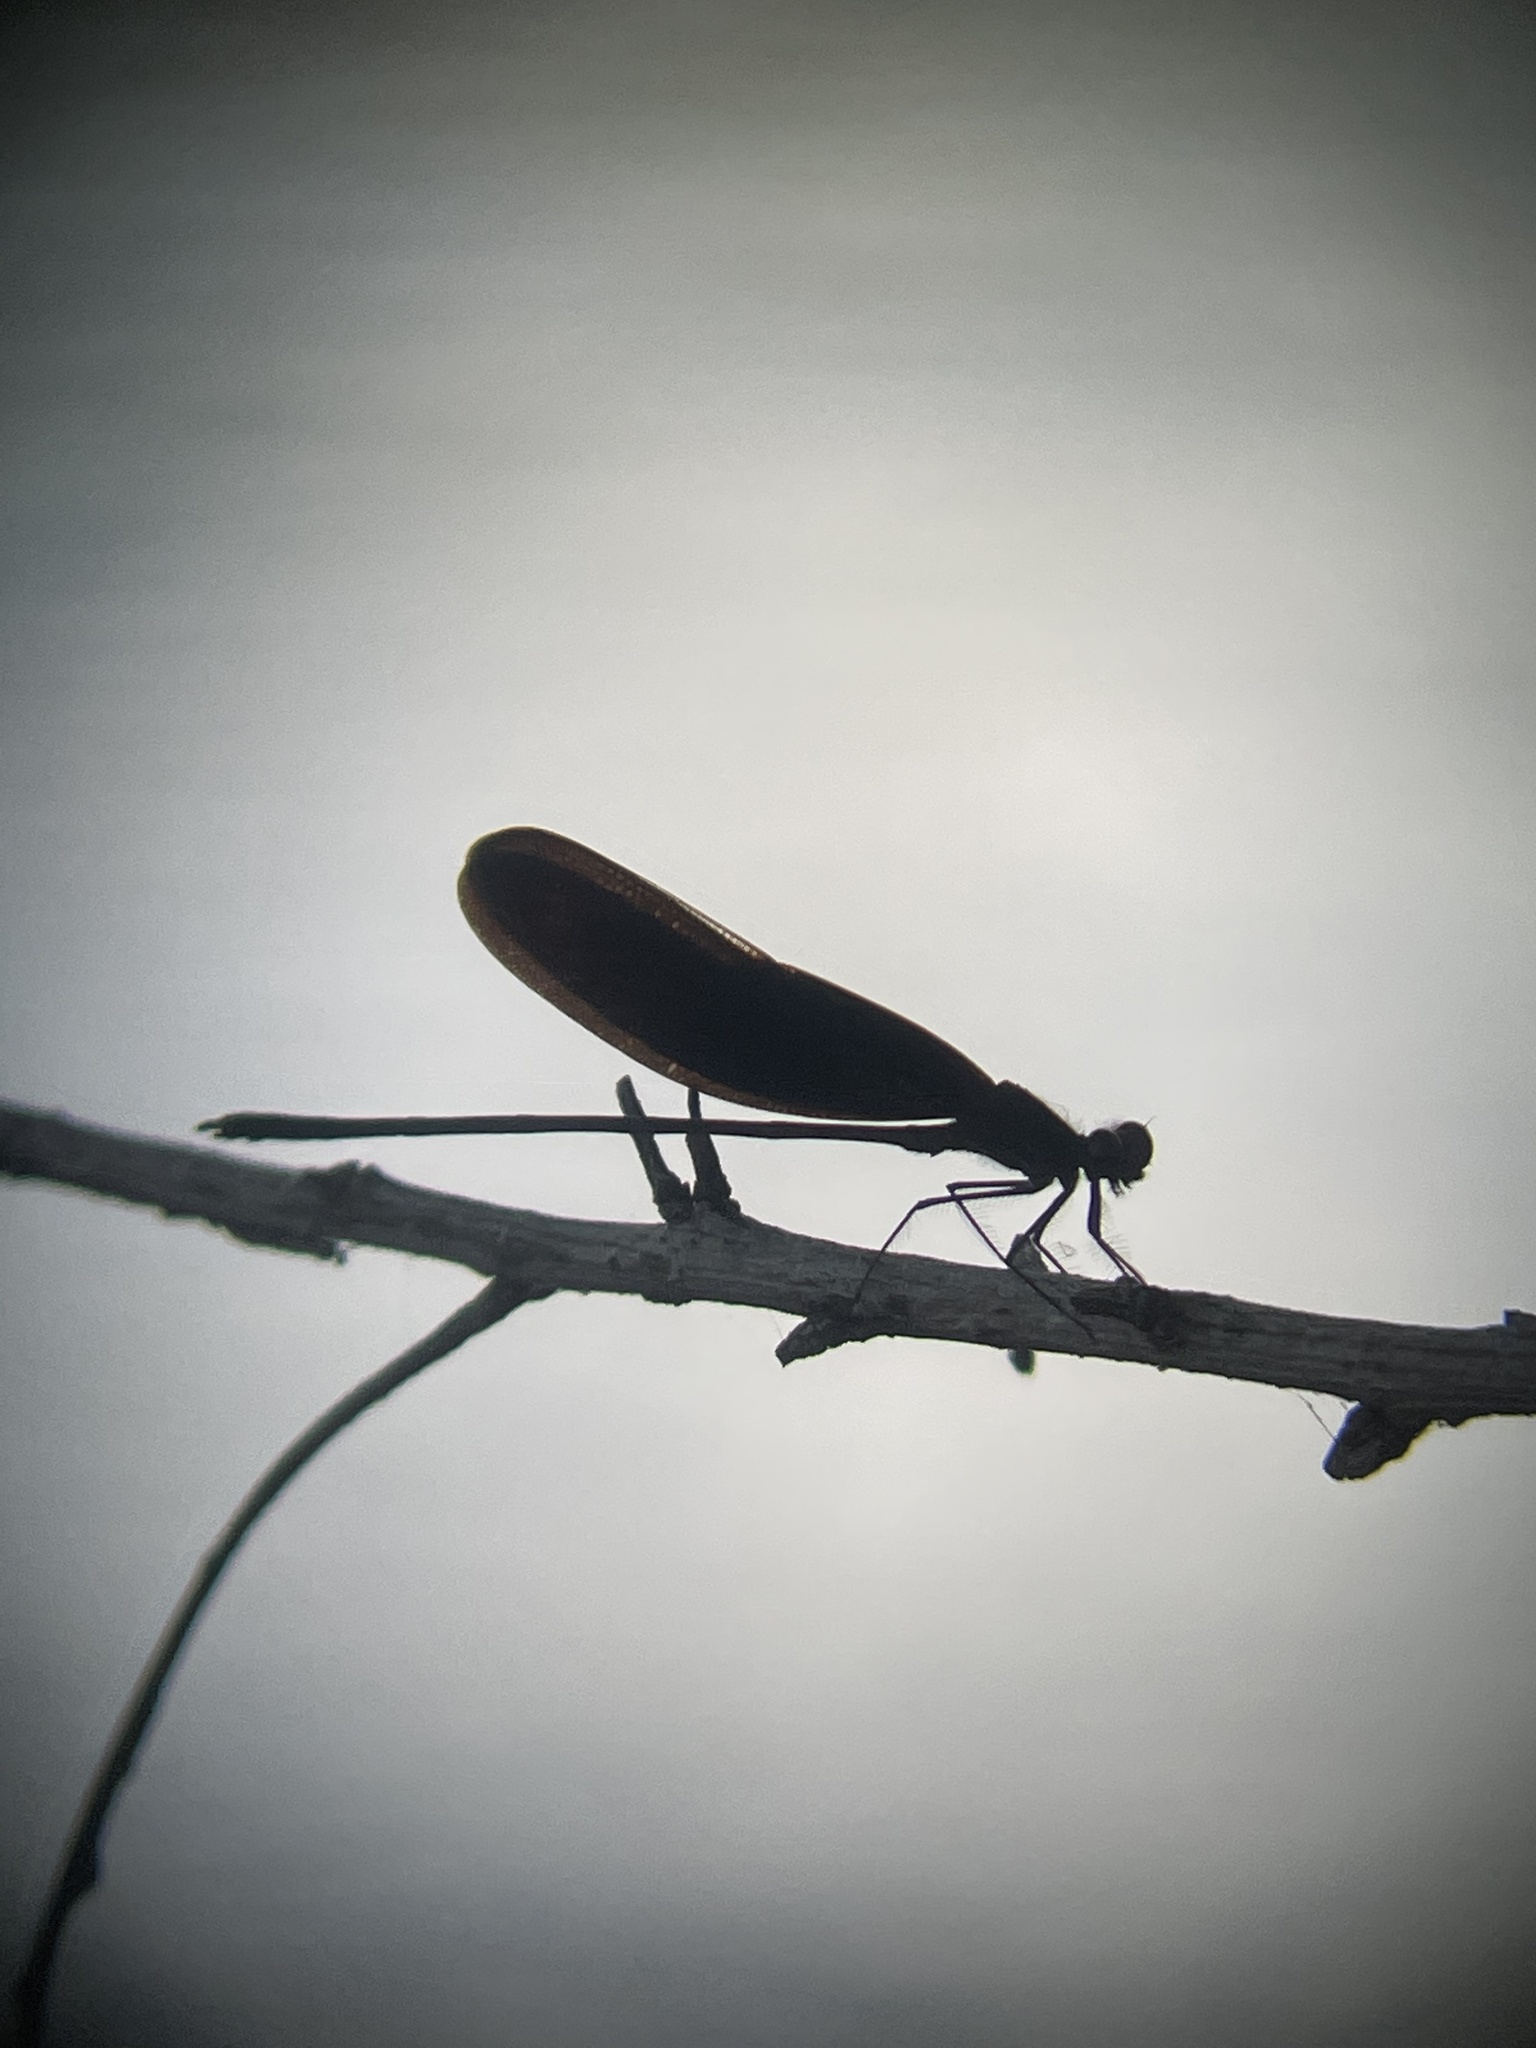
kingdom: Animalia
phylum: Arthropoda
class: Insecta
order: Odonata
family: Calopterygidae
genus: Hetaerina
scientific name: Hetaerina titia
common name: Smoky rubyspot
